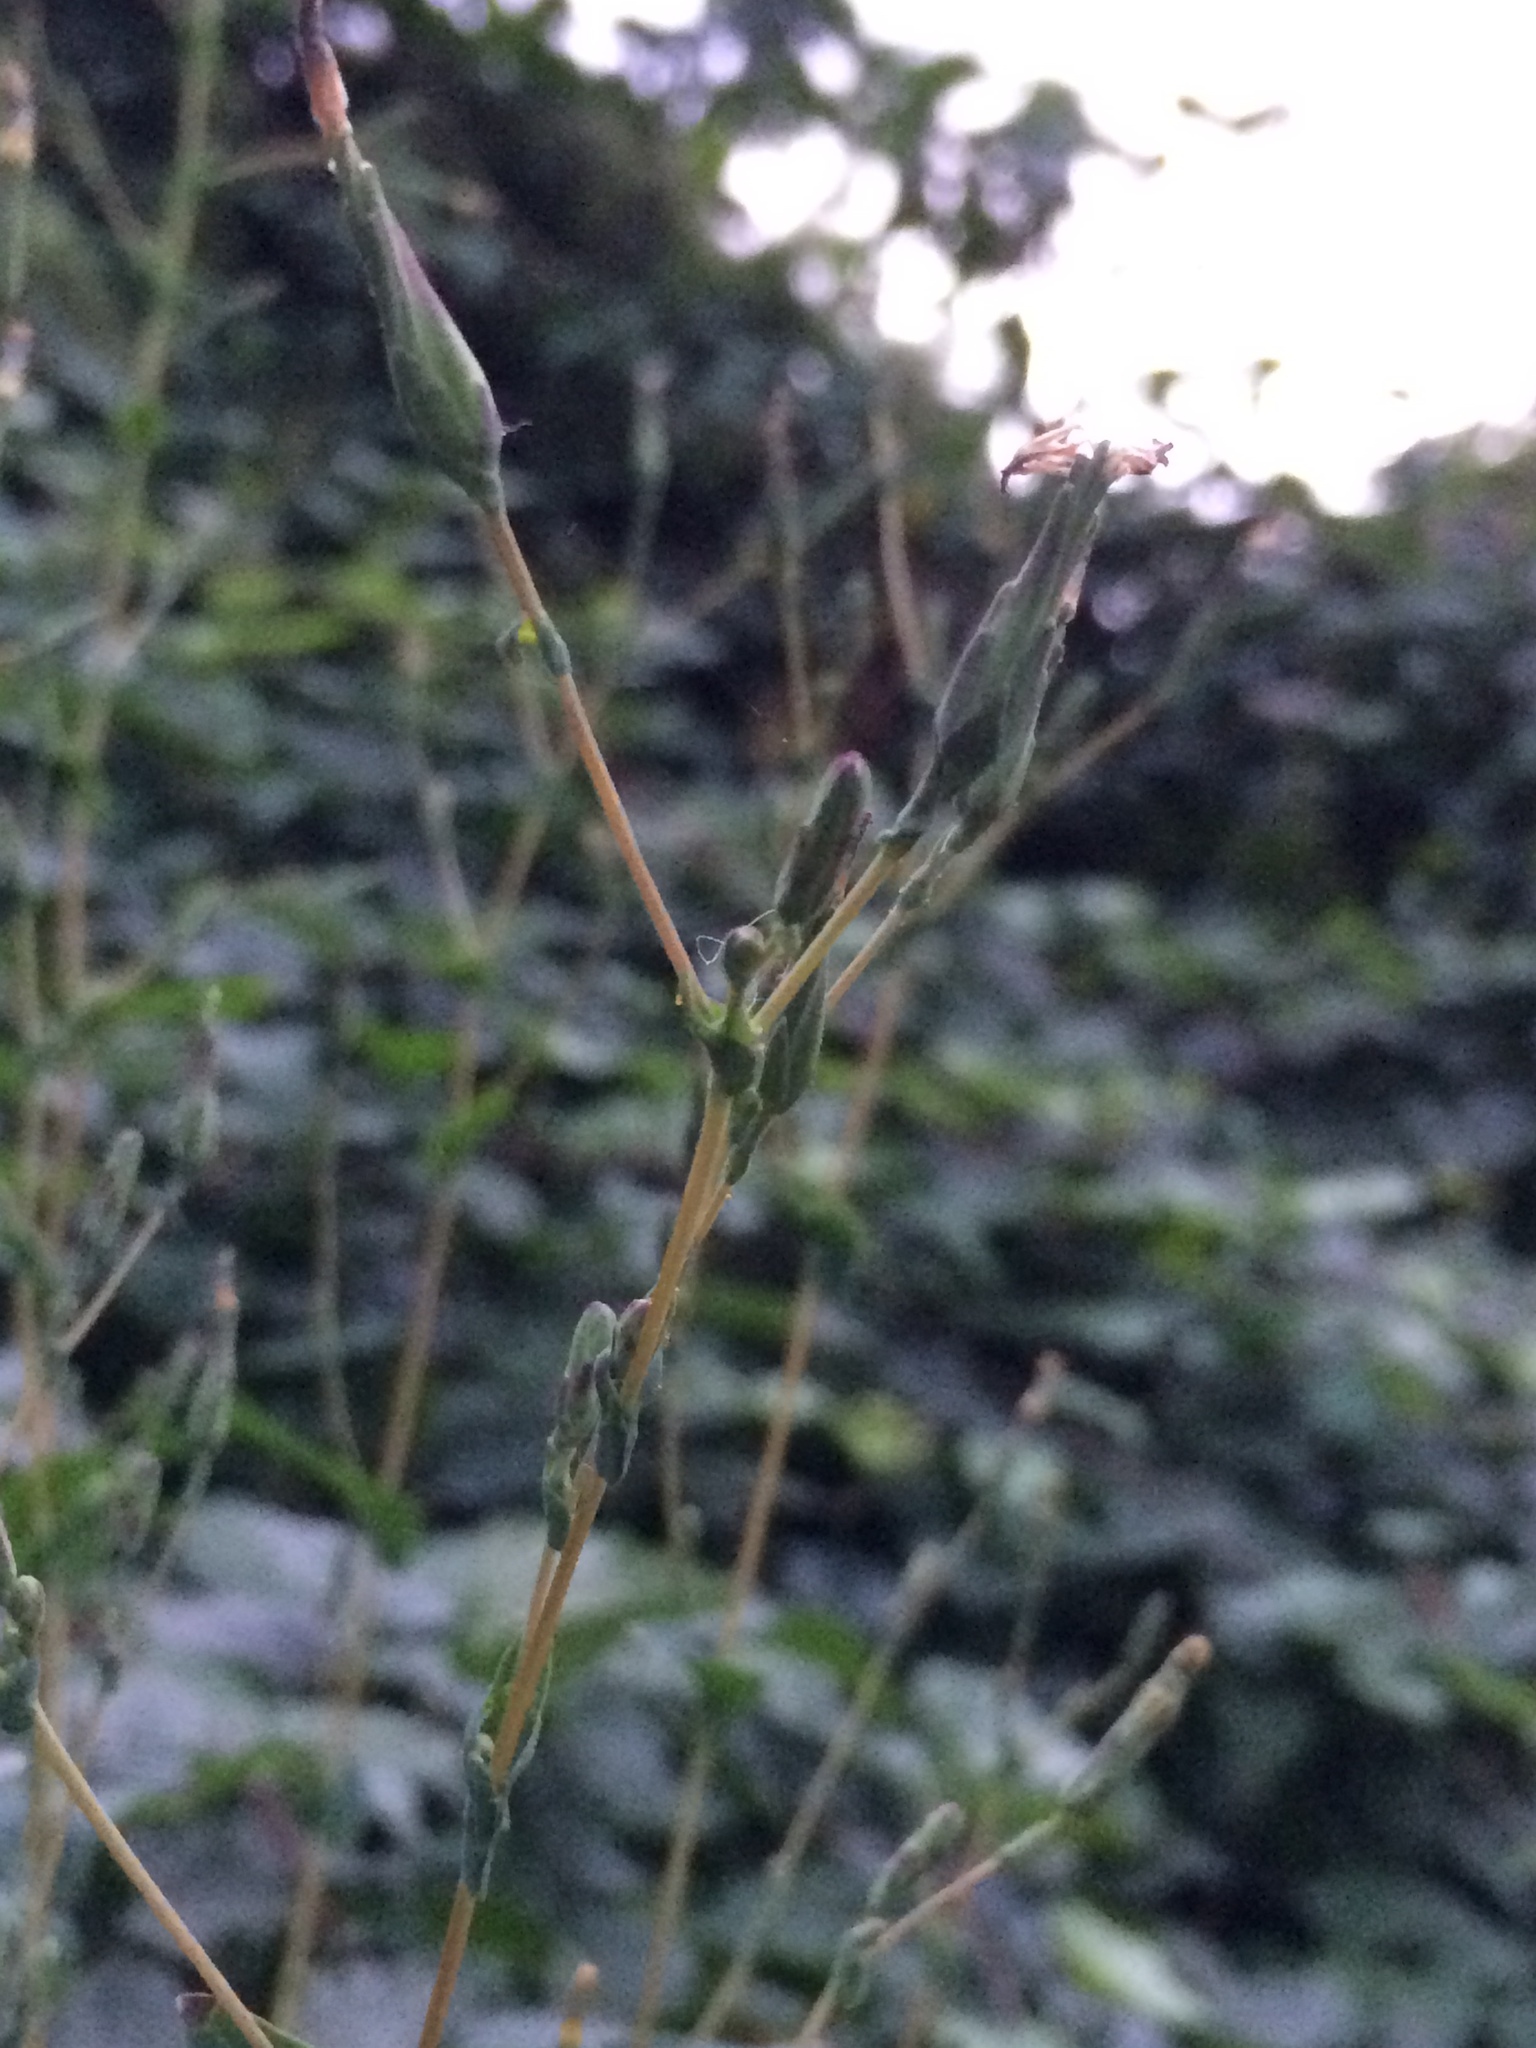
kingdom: Plantae
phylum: Tracheophyta
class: Magnoliopsida
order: Asterales
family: Asteraceae
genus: Lactuca
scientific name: Lactuca serriola
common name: Prickly lettuce
